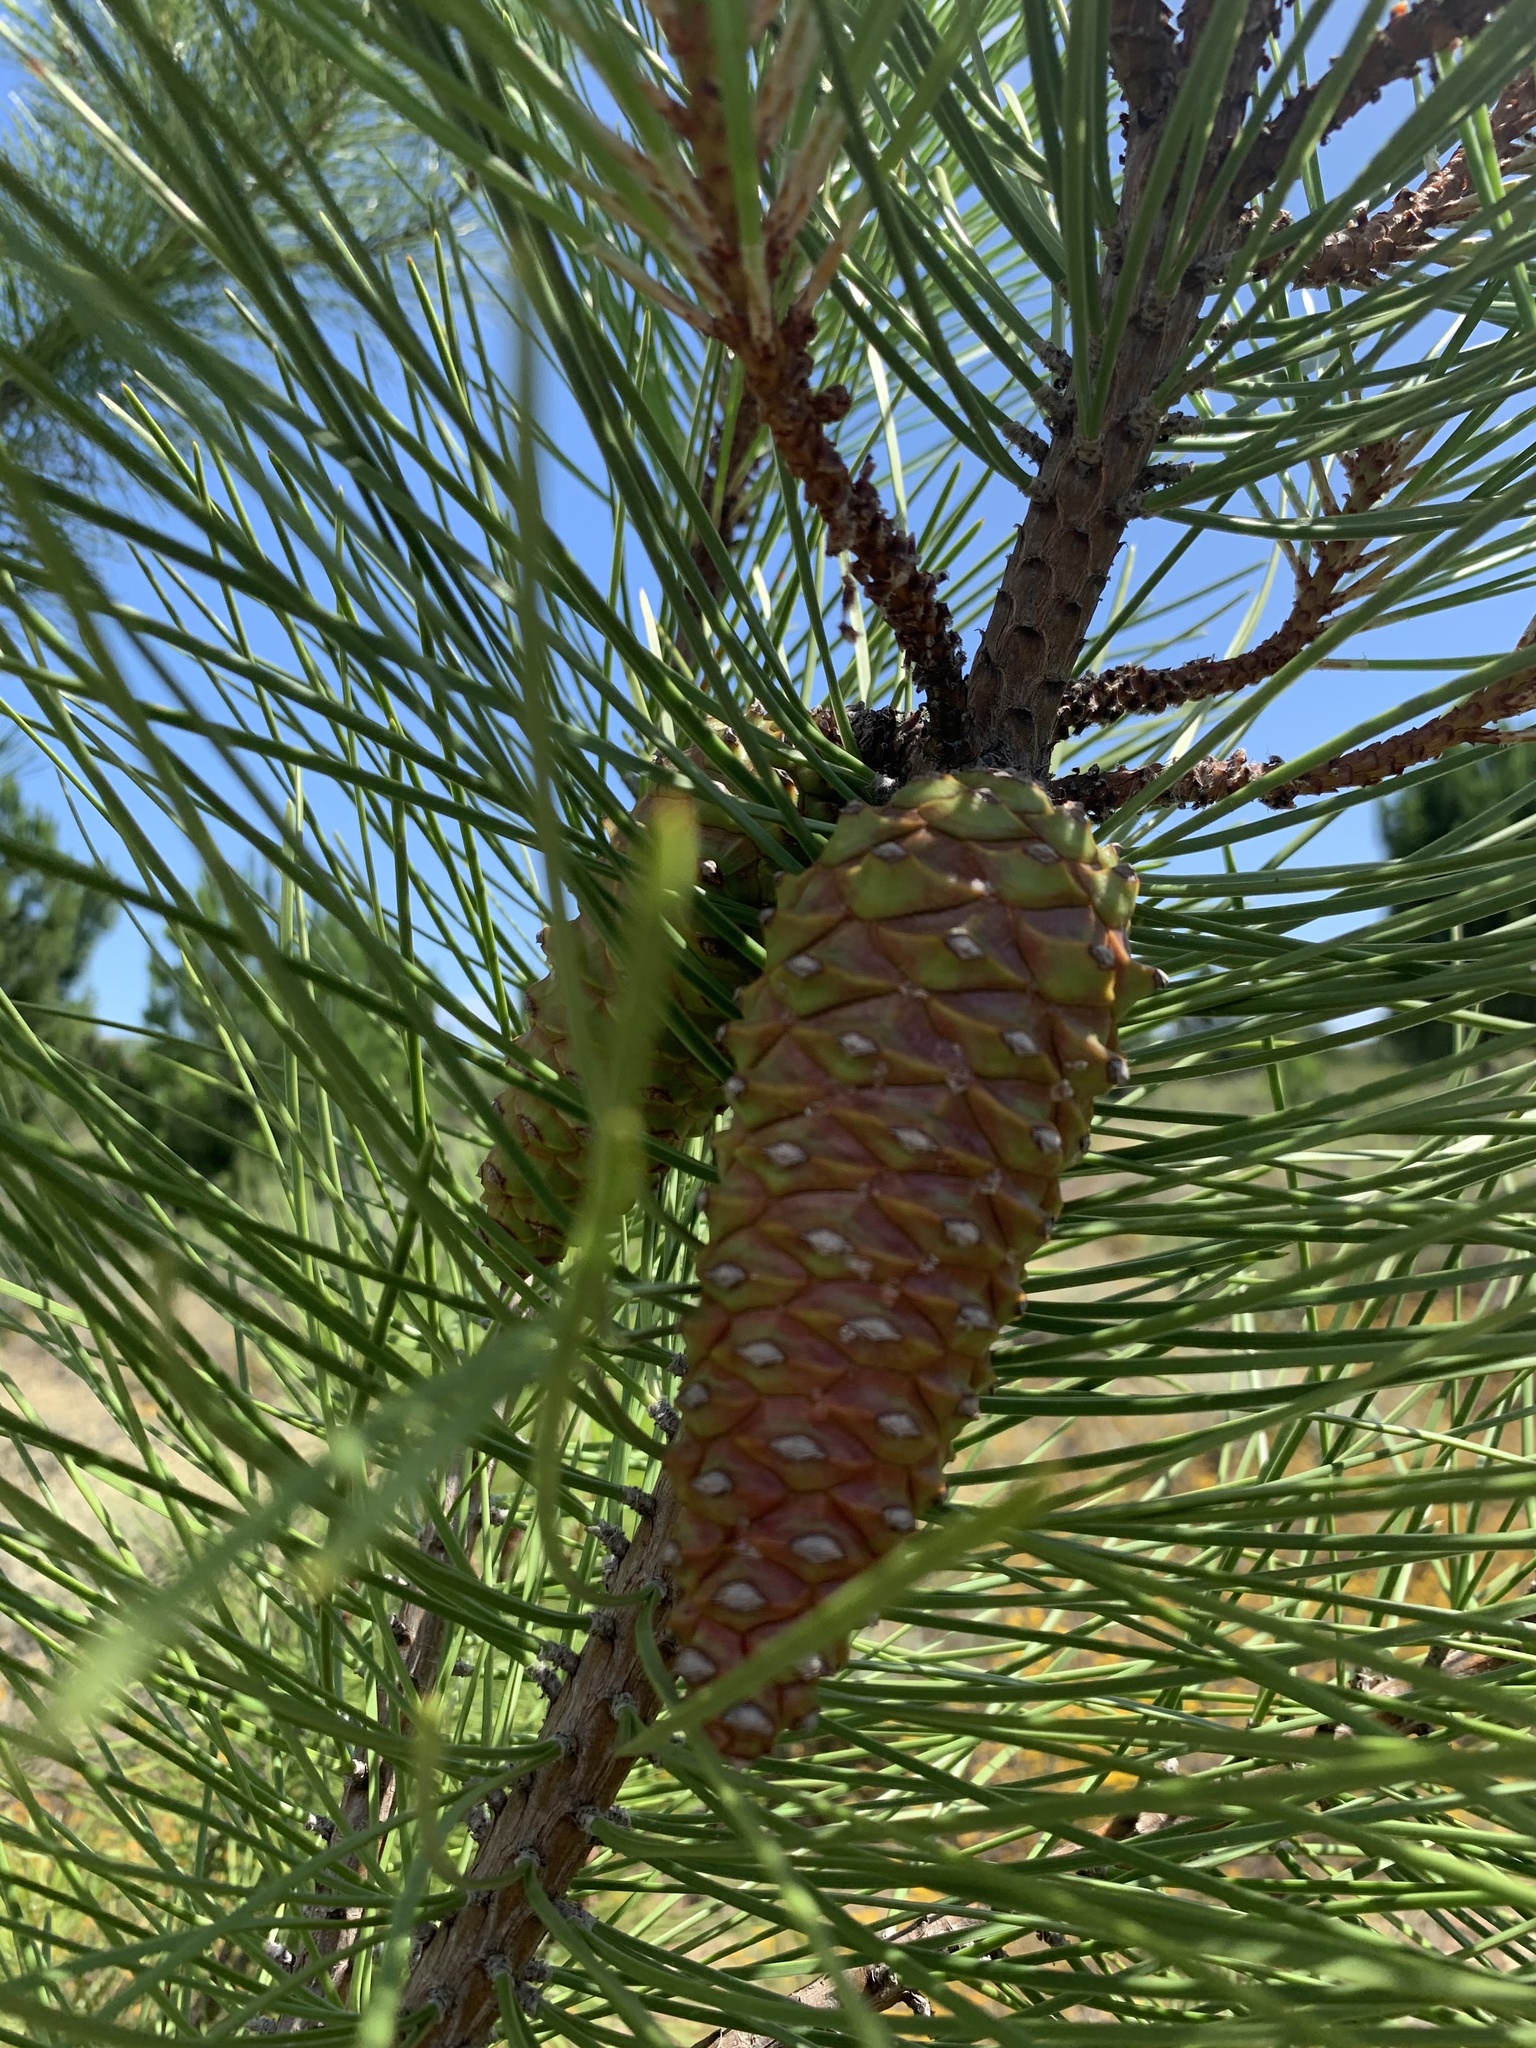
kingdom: Plantae
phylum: Tracheophyta
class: Pinopsida
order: Pinales
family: Pinaceae
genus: Pinus
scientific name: Pinus pinaster
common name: Maritime pine
